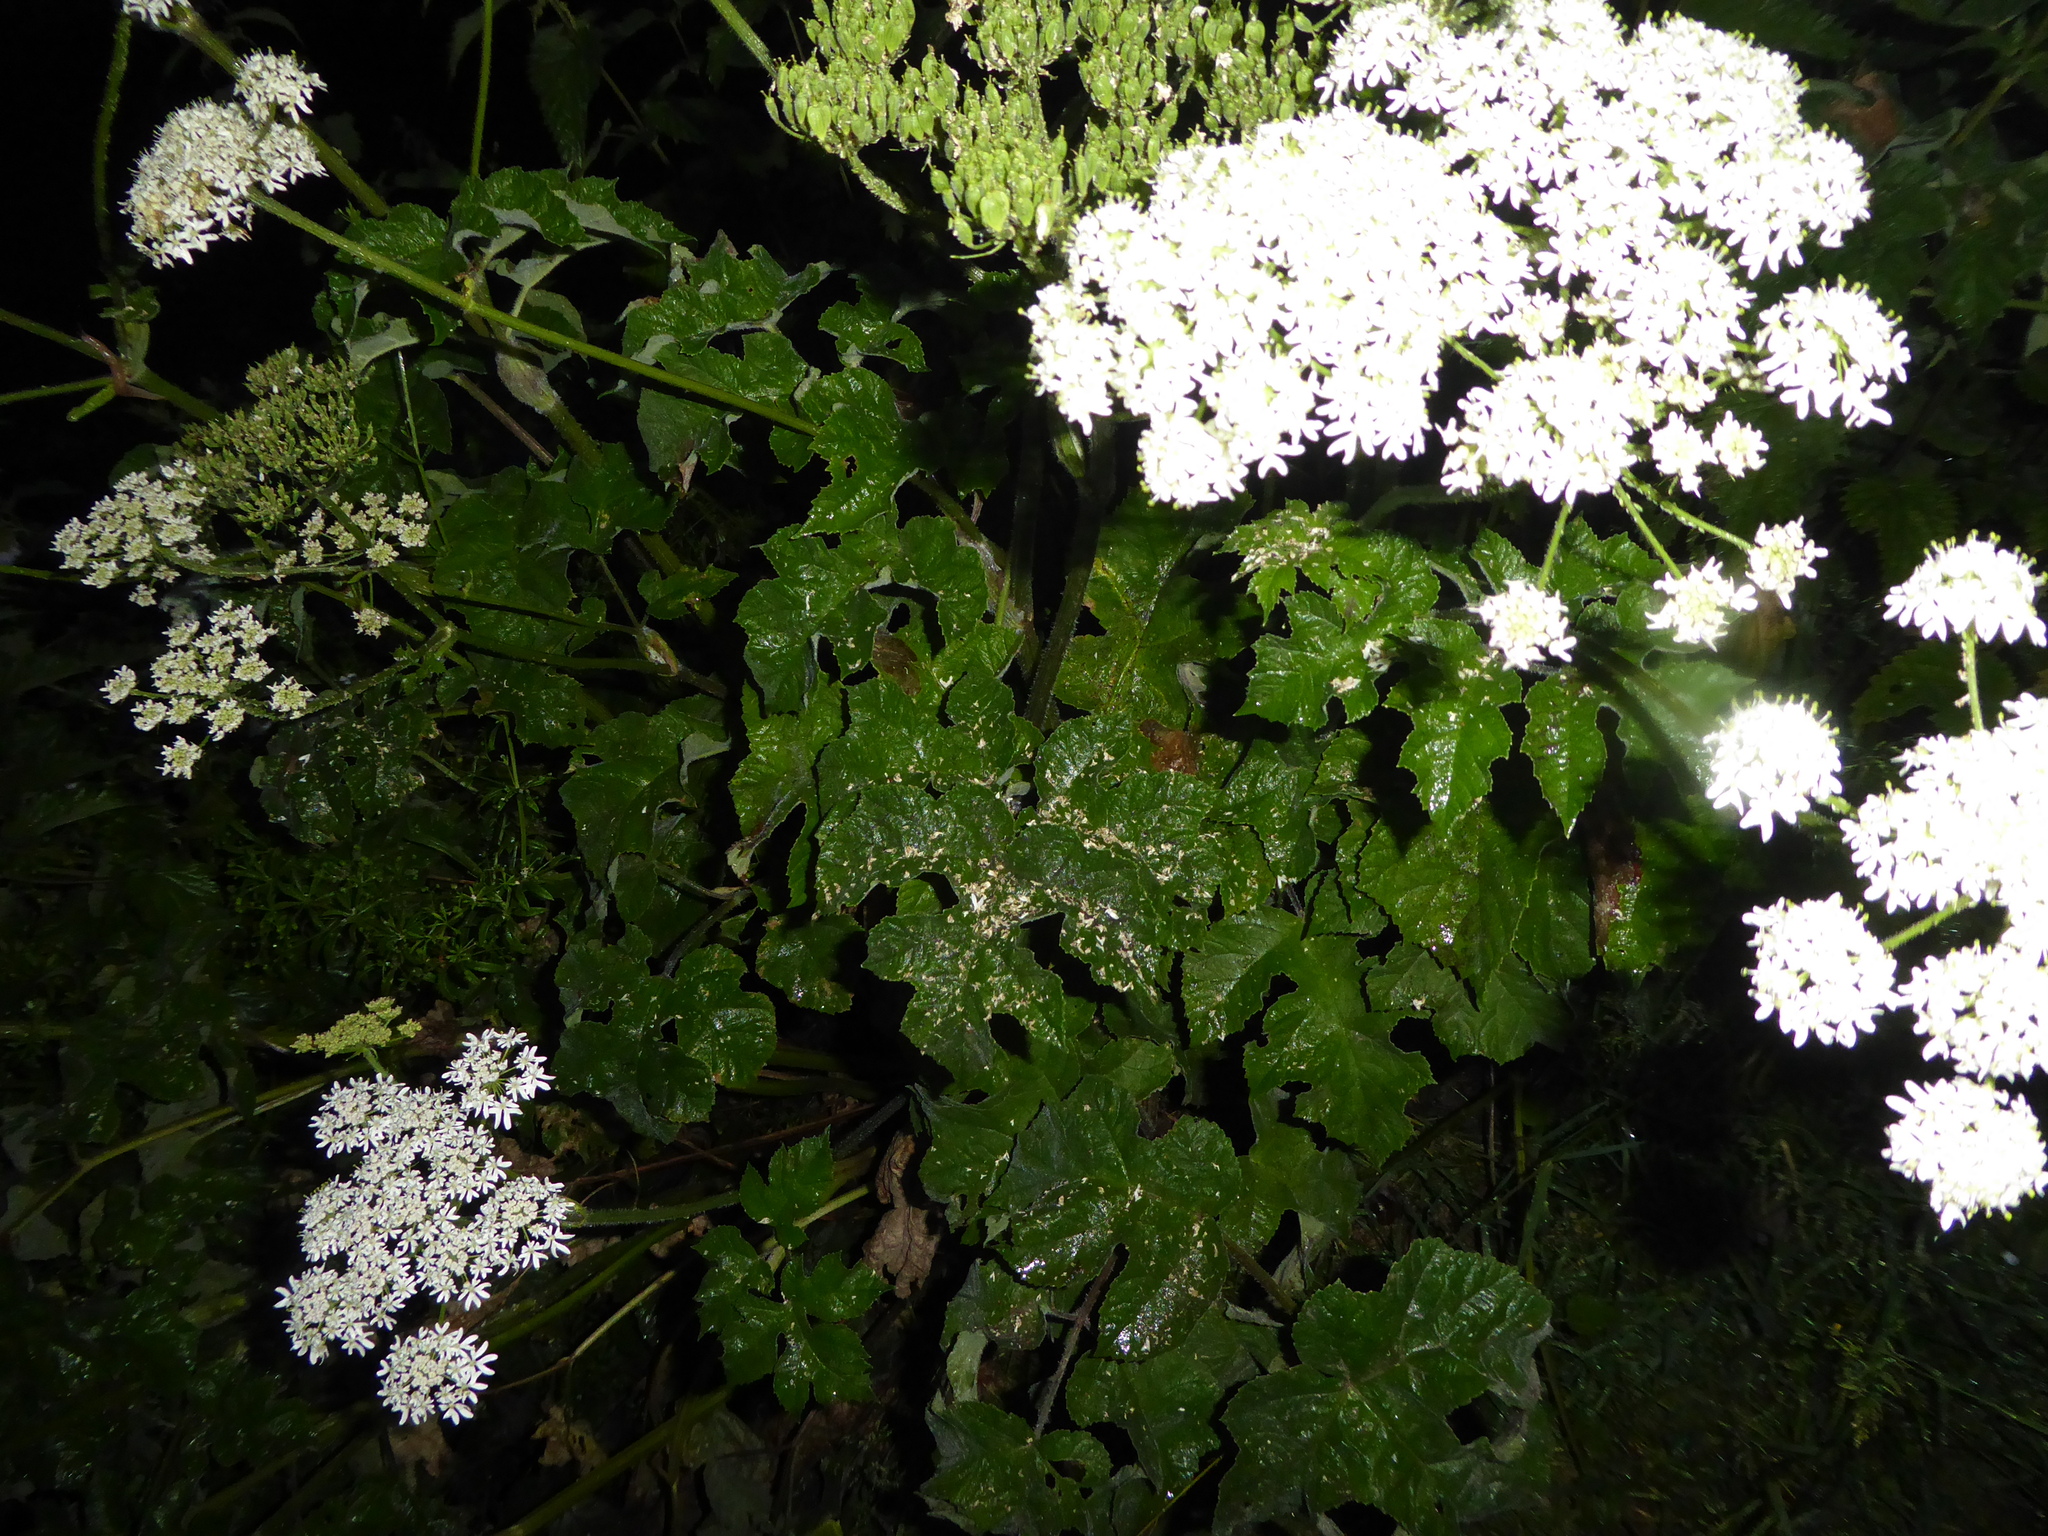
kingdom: Plantae
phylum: Tracheophyta
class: Magnoliopsida
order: Apiales
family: Apiaceae
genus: Heracleum
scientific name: Heracleum sphondylium
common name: Hogweed
